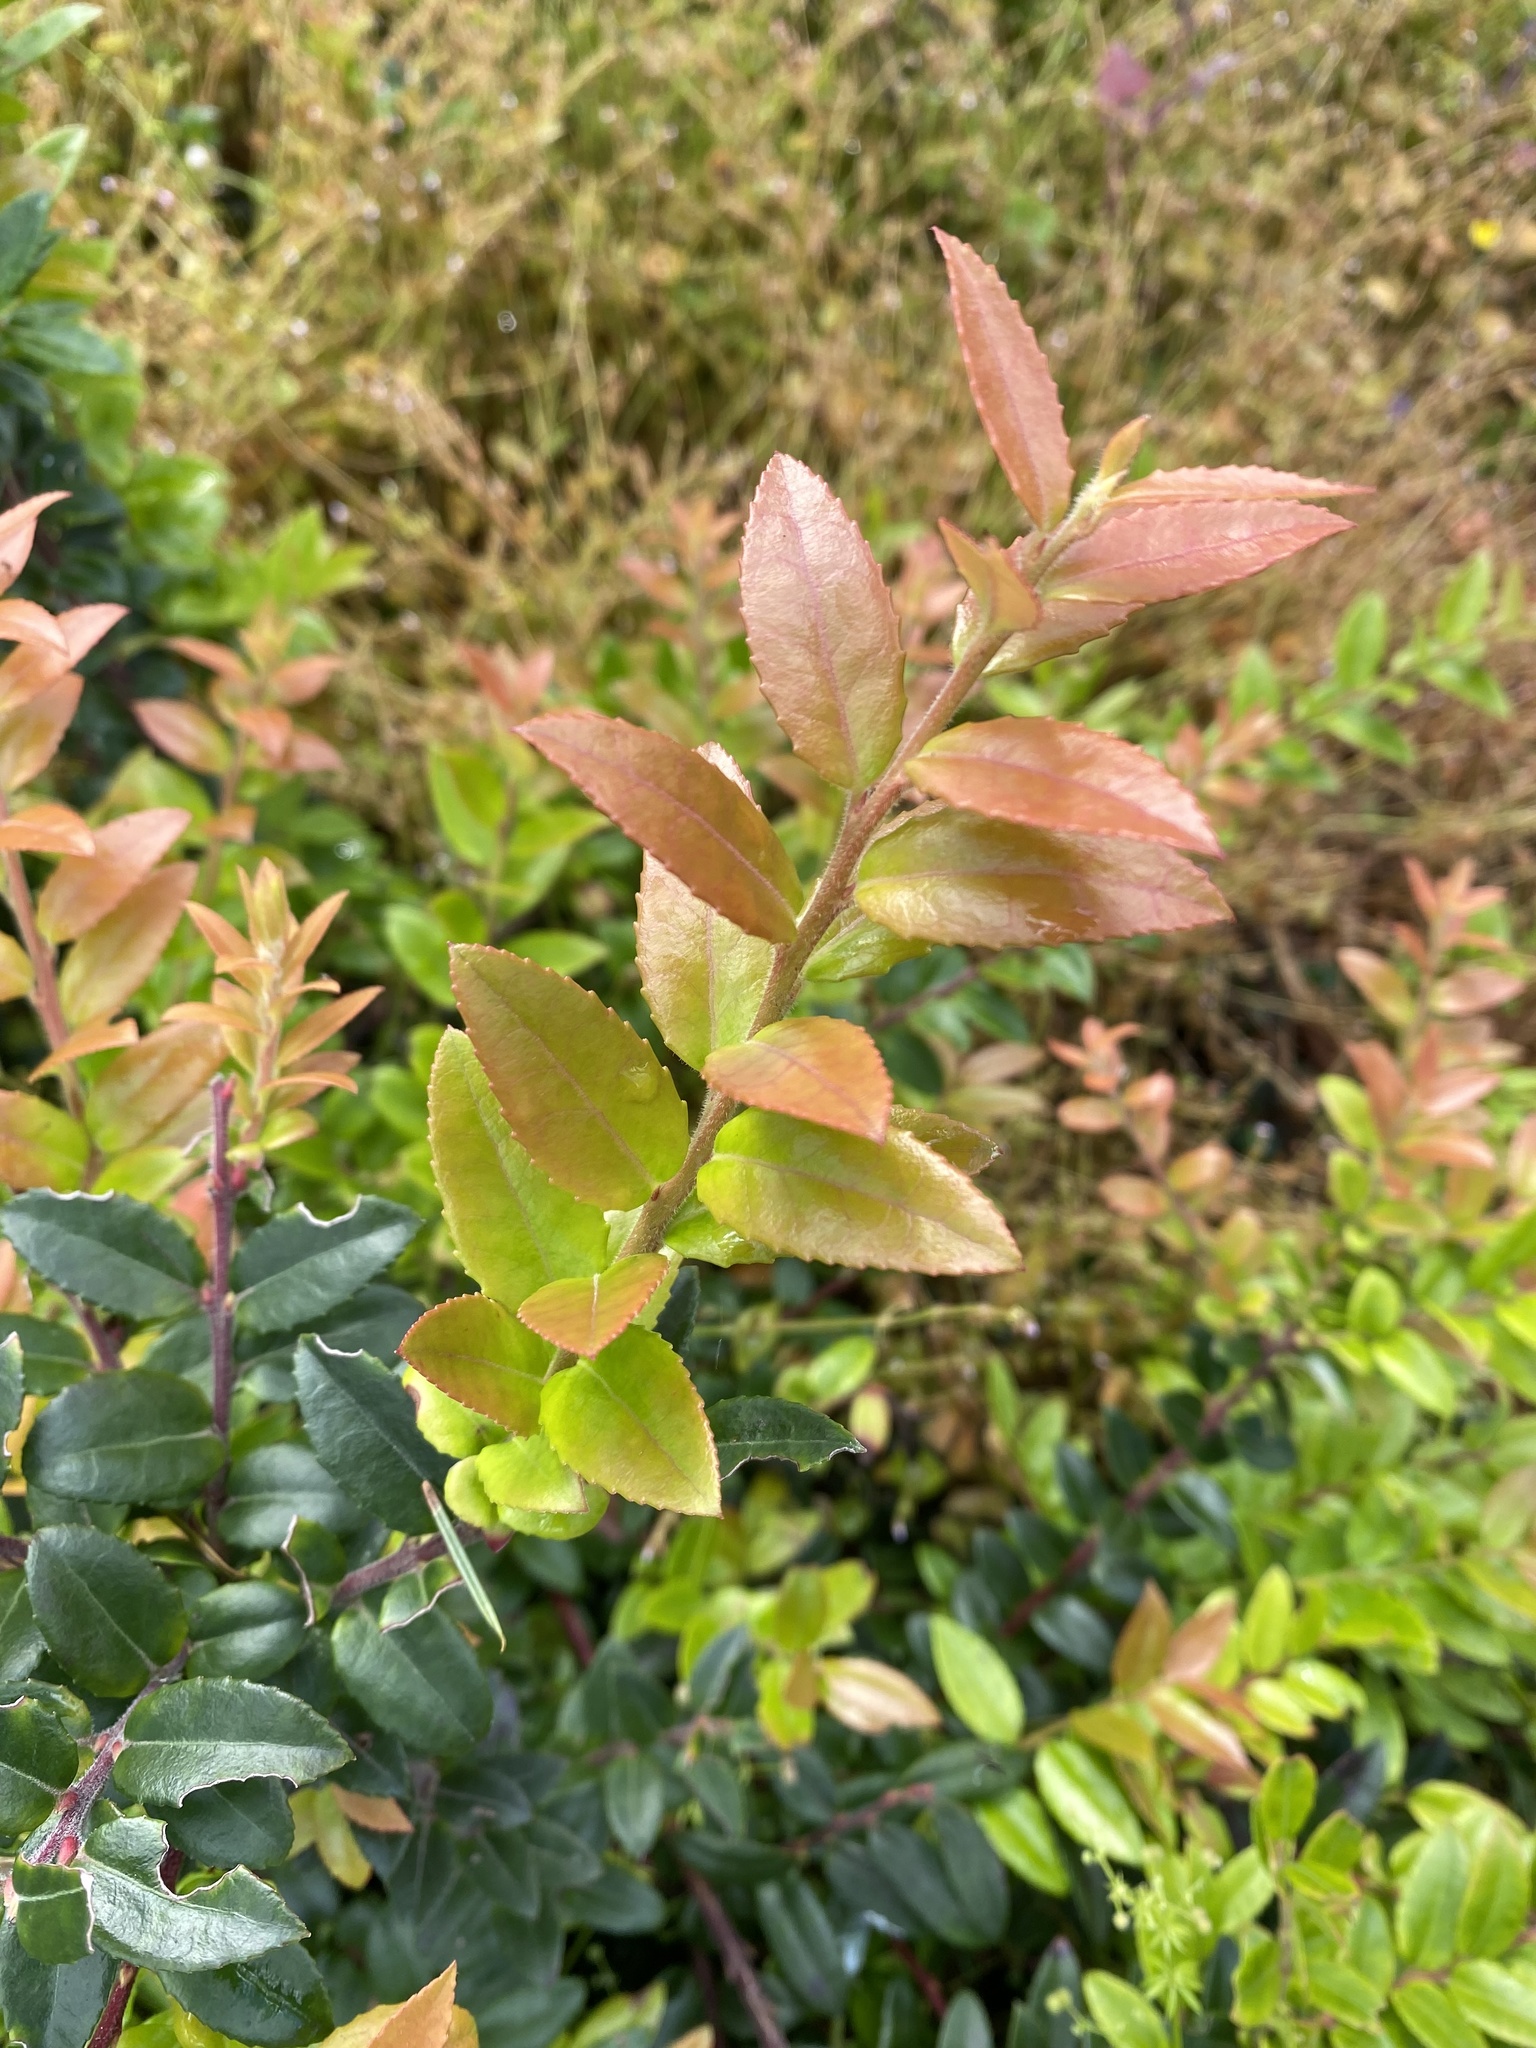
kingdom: Plantae
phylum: Tracheophyta
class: Magnoliopsida
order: Ericales
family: Ericaceae
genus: Vaccinium
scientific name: Vaccinium ovatum
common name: California-huckleberry
